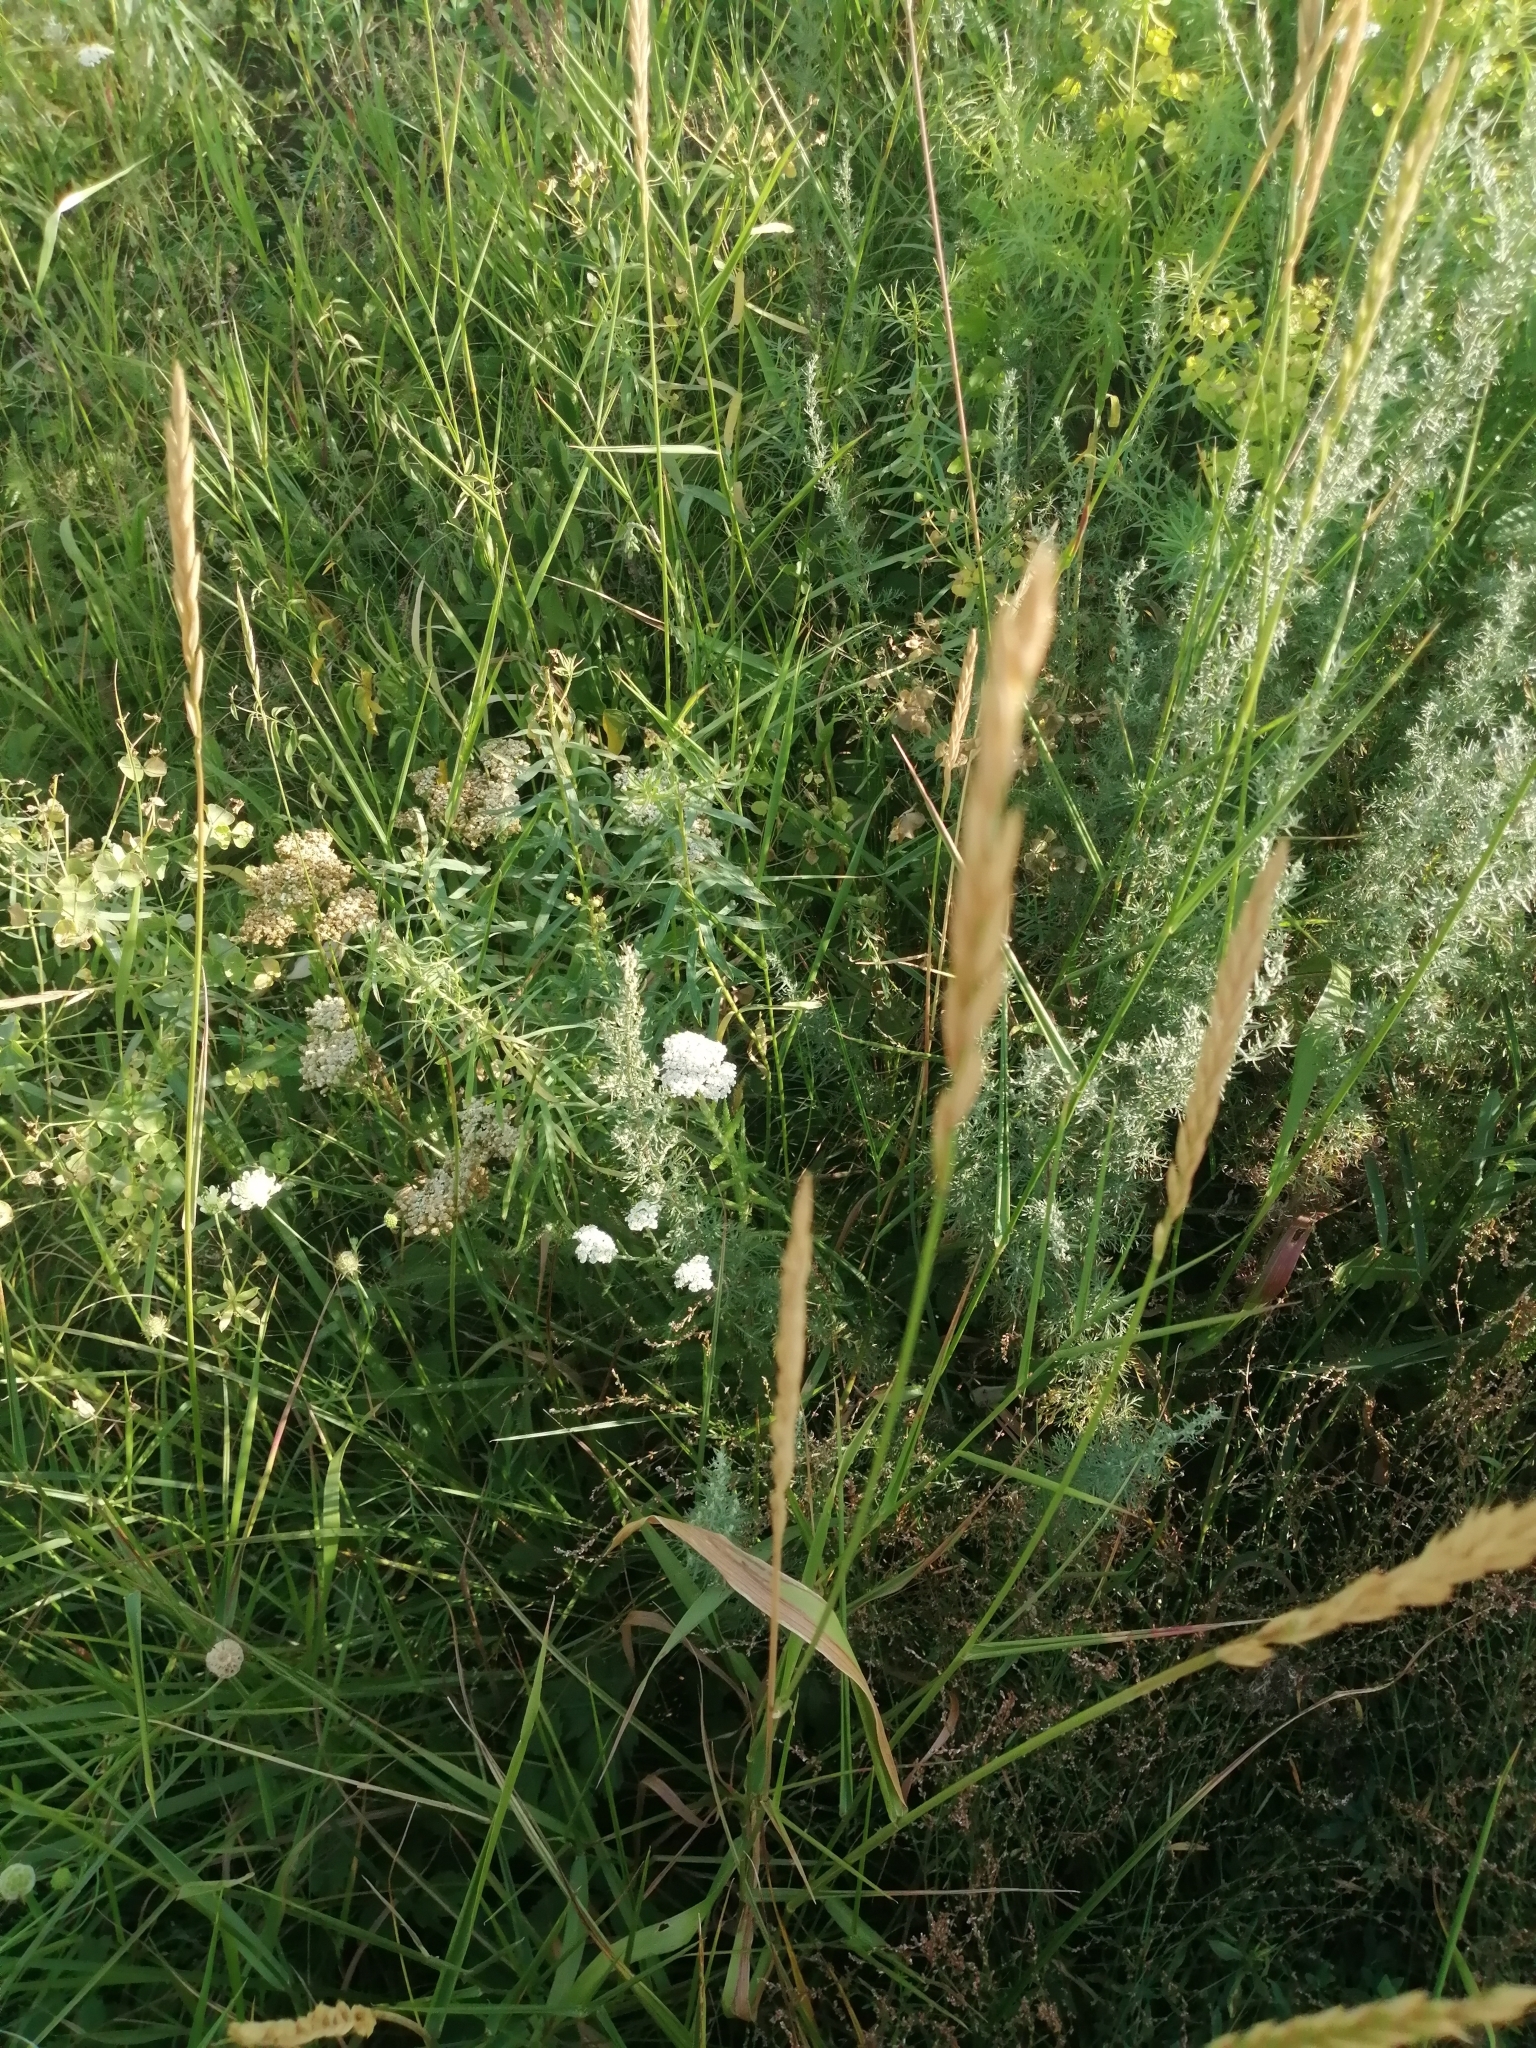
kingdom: Plantae
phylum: Tracheophyta
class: Liliopsida
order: Poales
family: Poaceae
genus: Elymus
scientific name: Elymus repens
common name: Quackgrass
